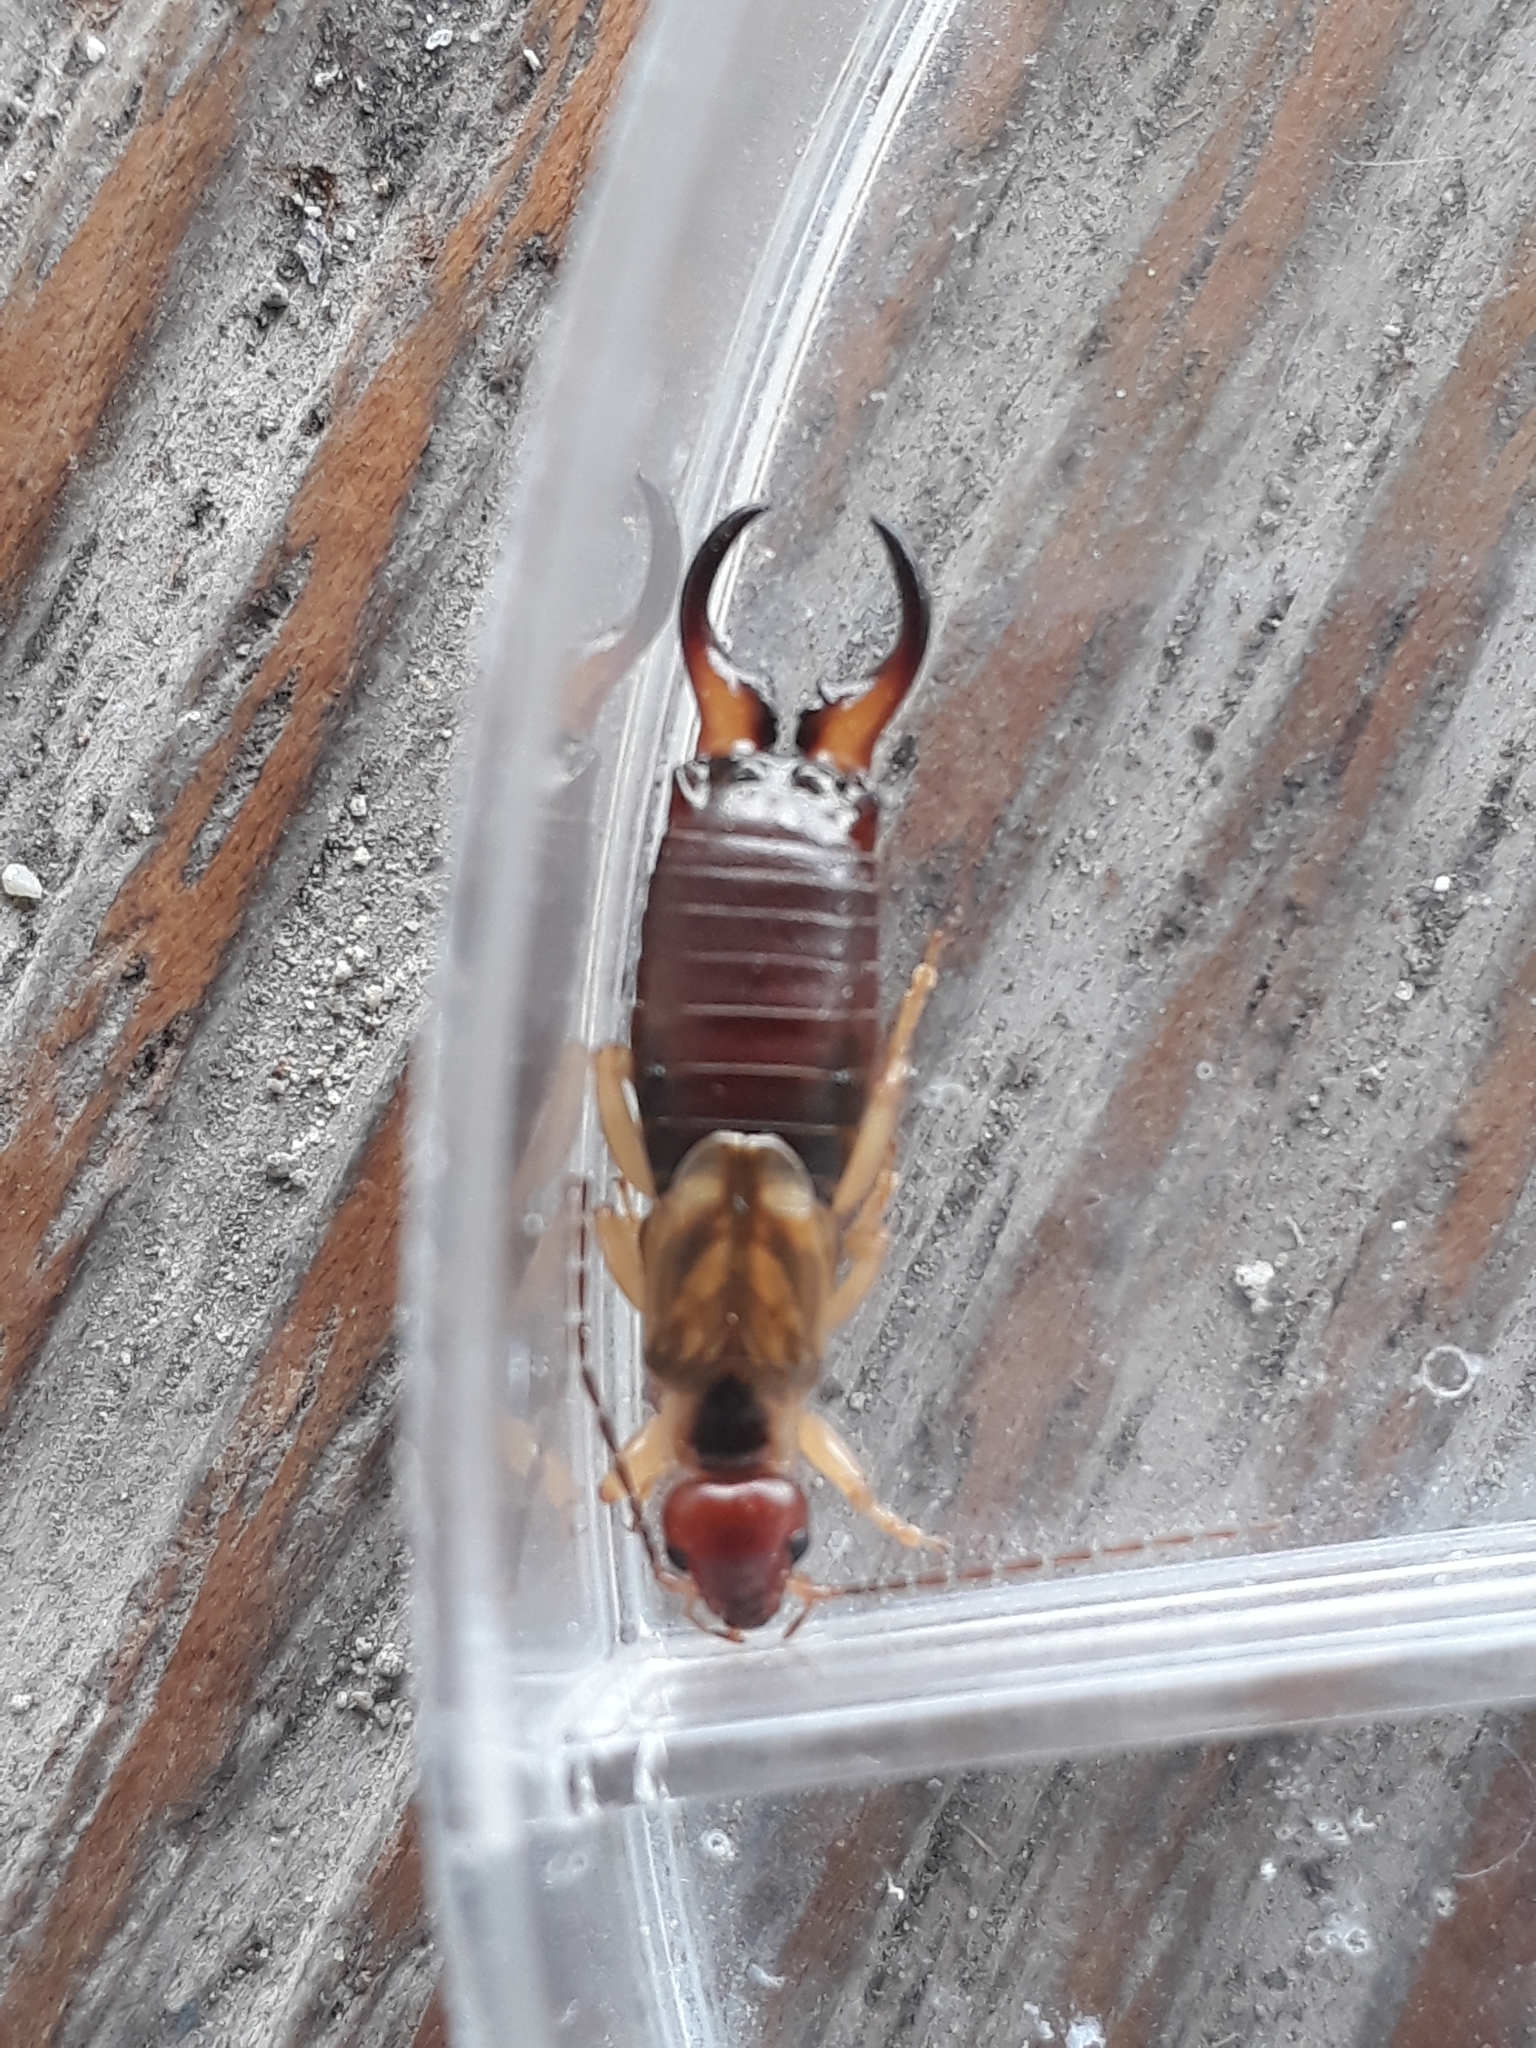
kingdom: Animalia
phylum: Arthropoda
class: Insecta
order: Dermaptera
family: Forficulidae
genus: Forficula
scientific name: Forficula
